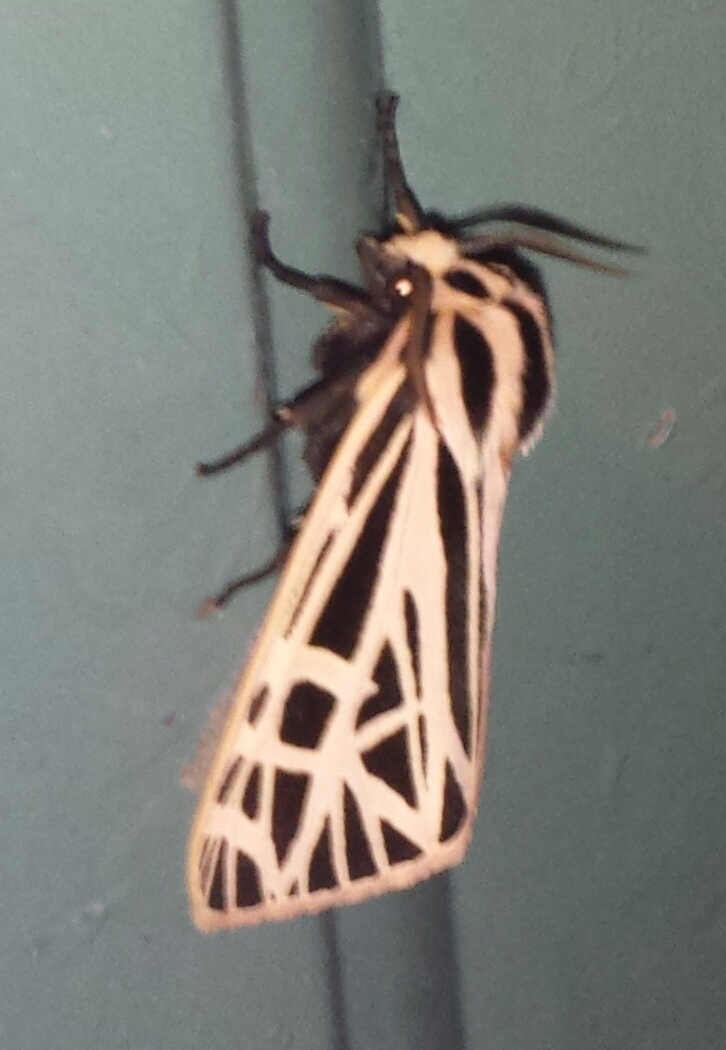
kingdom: Animalia
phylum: Arthropoda
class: Insecta
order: Lepidoptera
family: Erebidae
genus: Grammia
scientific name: Grammia virgo
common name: Virgin tiger moth
